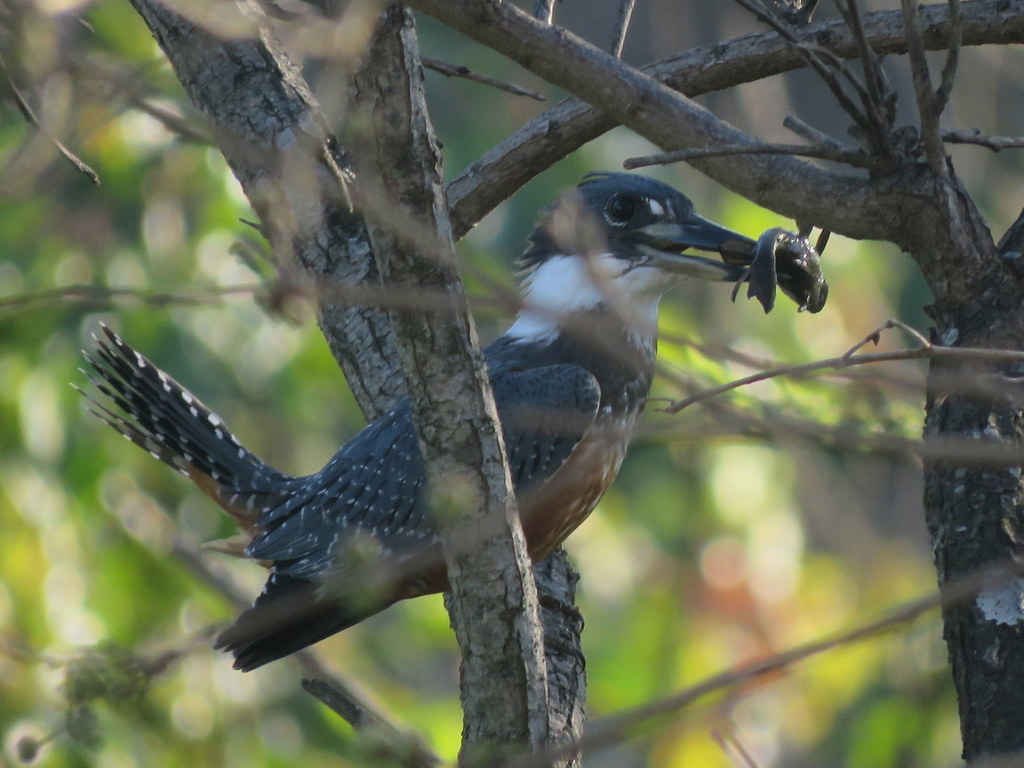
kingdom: Animalia
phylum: Chordata
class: Aves
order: Coraciiformes
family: Alcedinidae
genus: Megaceryle
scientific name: Megaceryle torquata
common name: Ringed kingfisher
